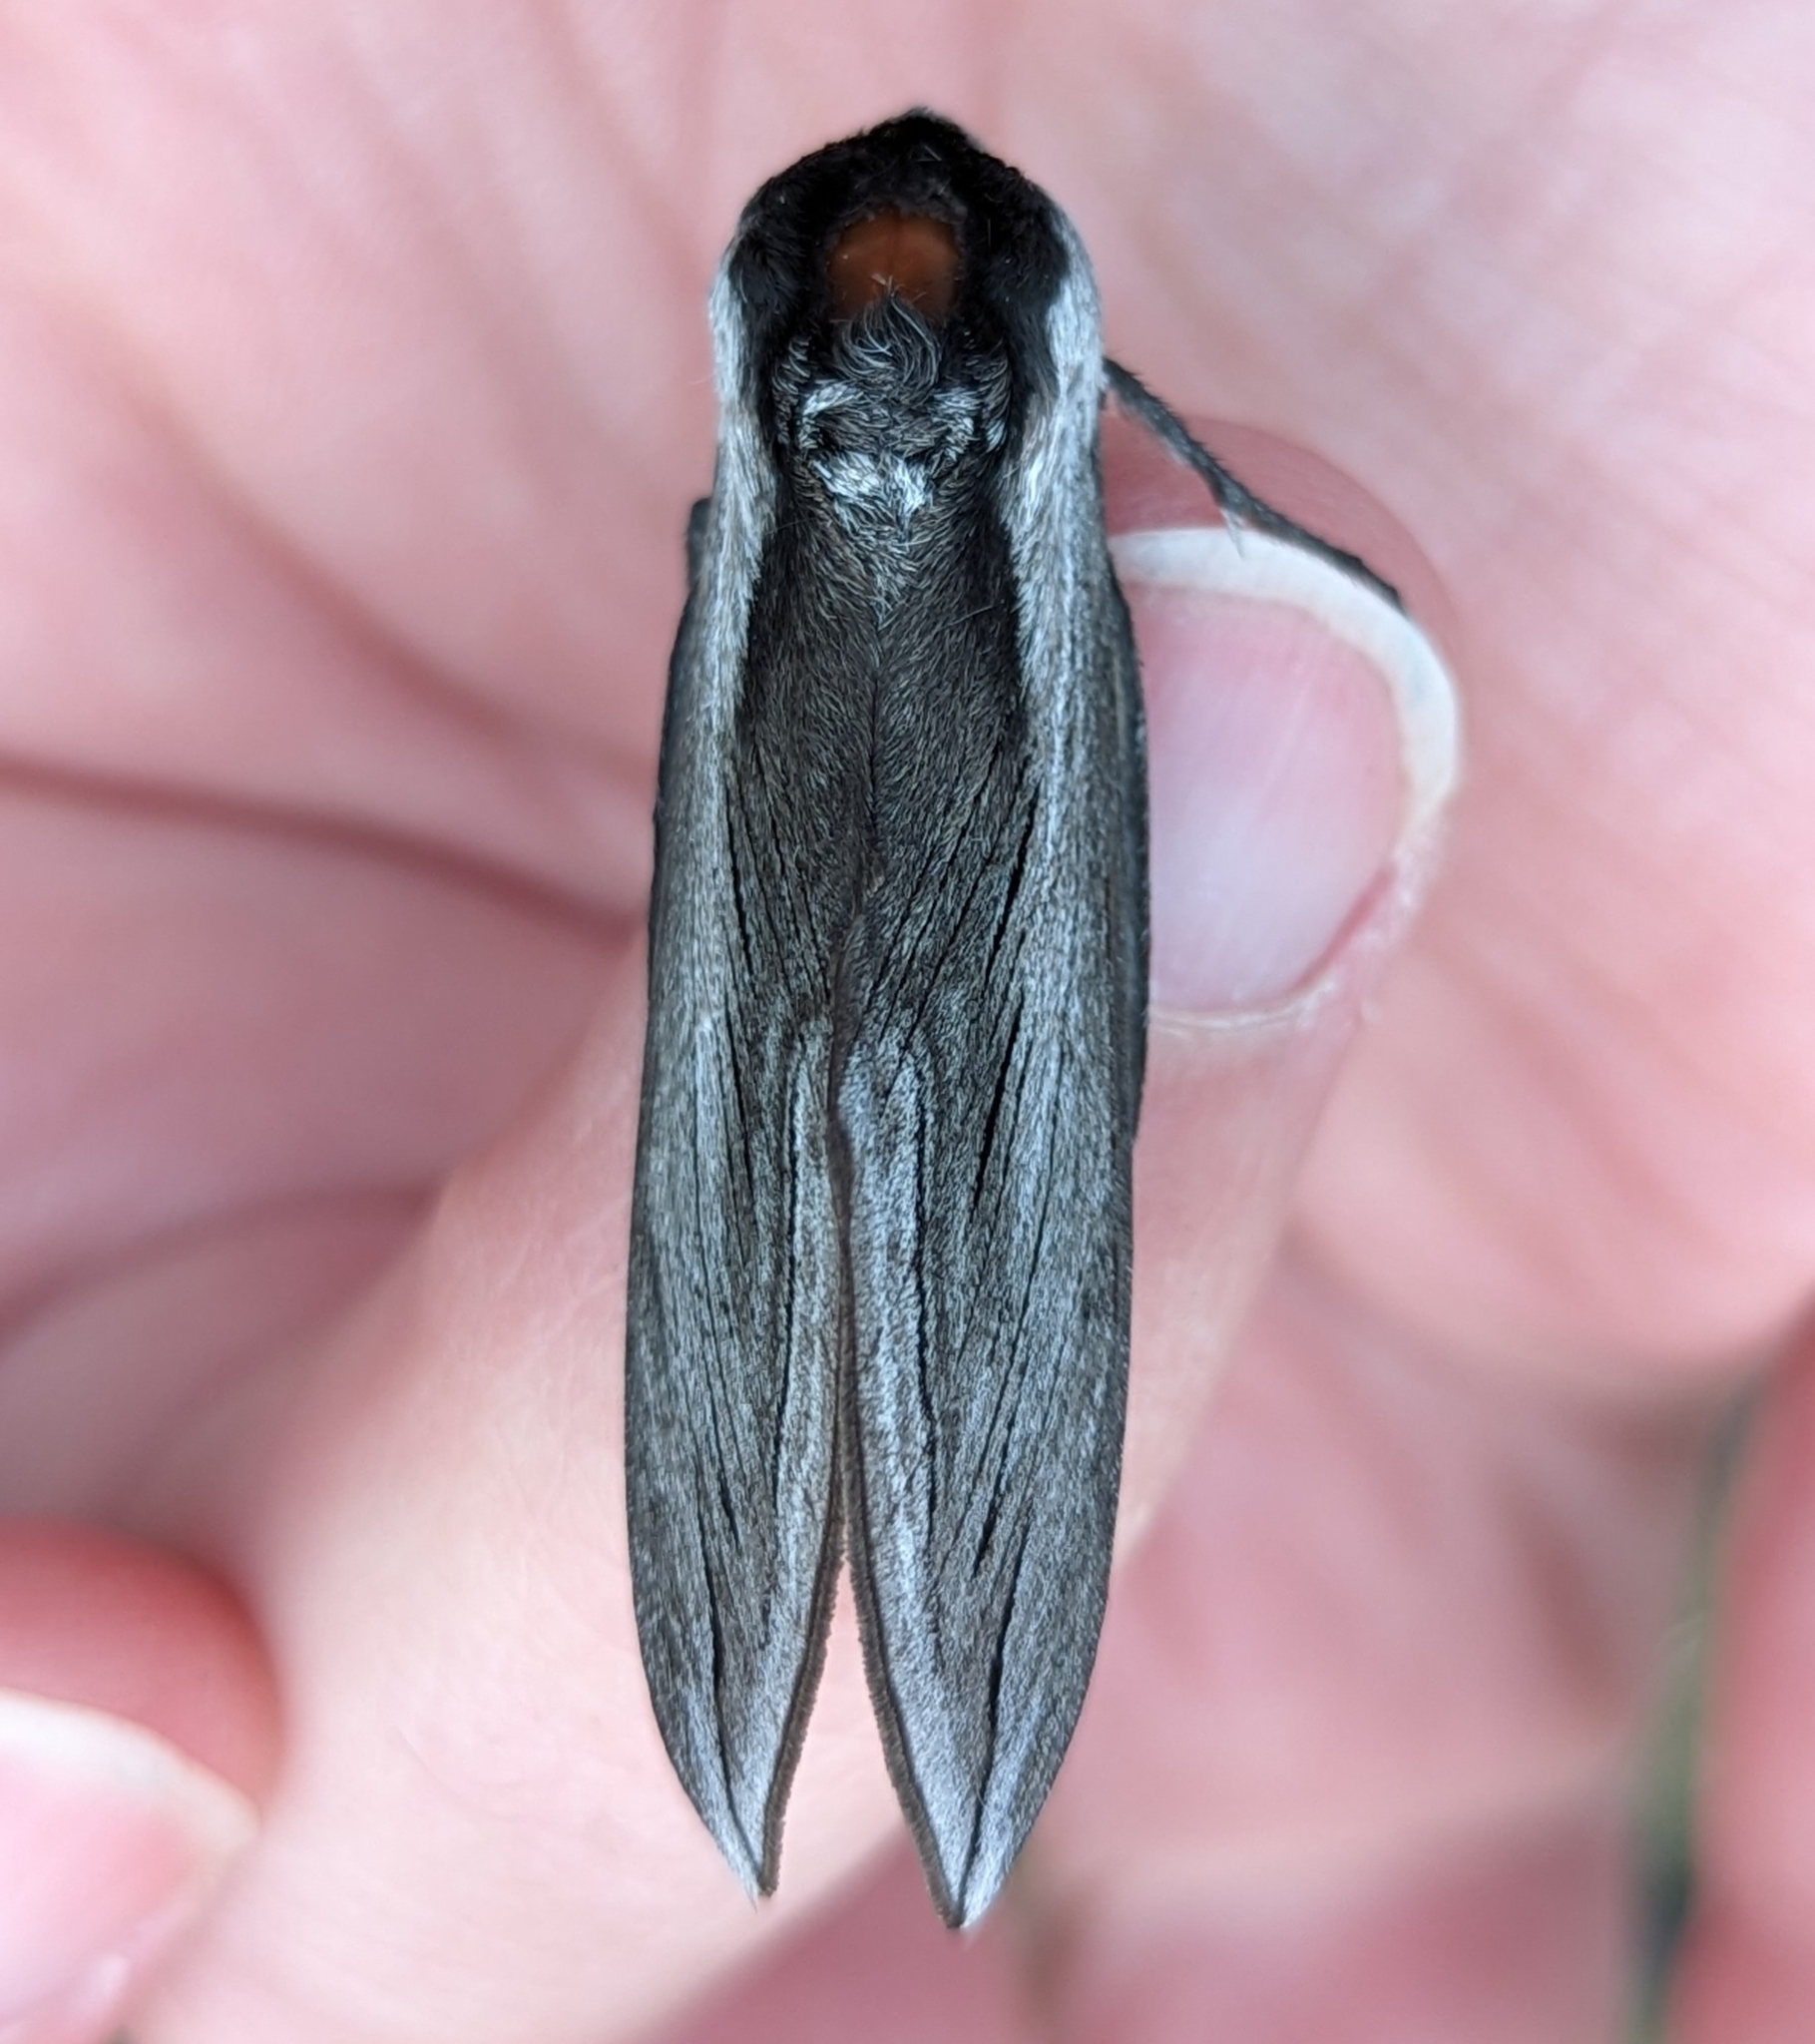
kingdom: Animalia
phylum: Arthropoda
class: Insecta
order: Lepidoptera
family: Sphingidae
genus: Sphinx
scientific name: Sphinx vashti
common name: Snowberry sphinx
